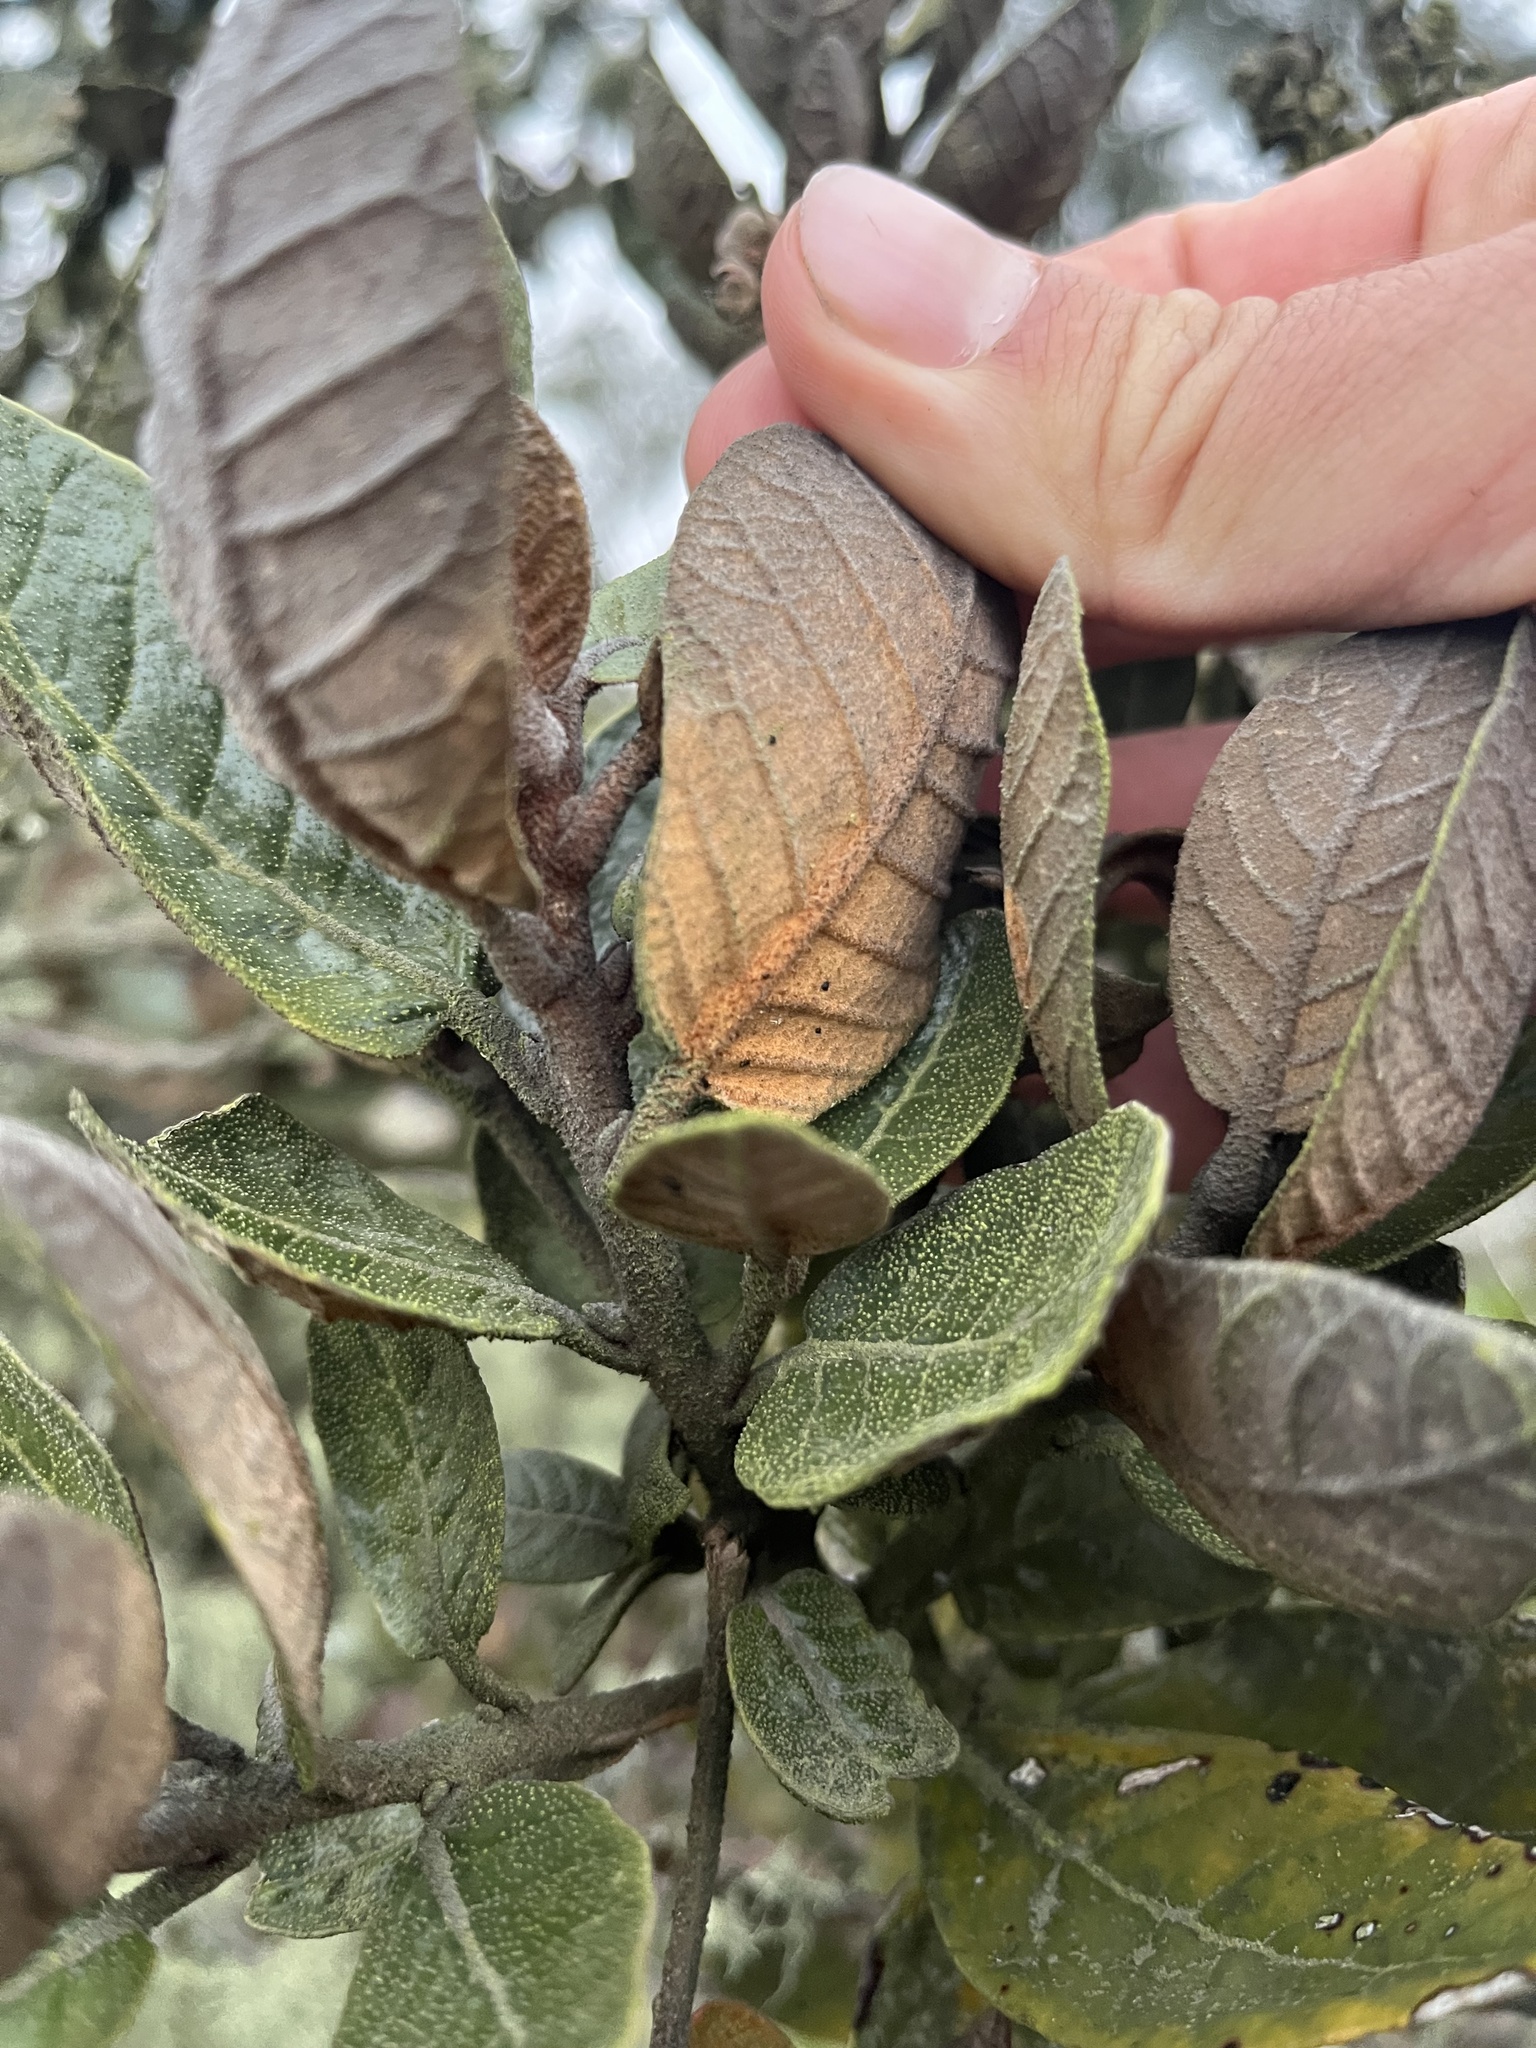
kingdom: Plantae
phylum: Tracheophyta
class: Magnoliopsida
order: Ericales
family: Clethraceae
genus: Clethra
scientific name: Clethra fimbriata
